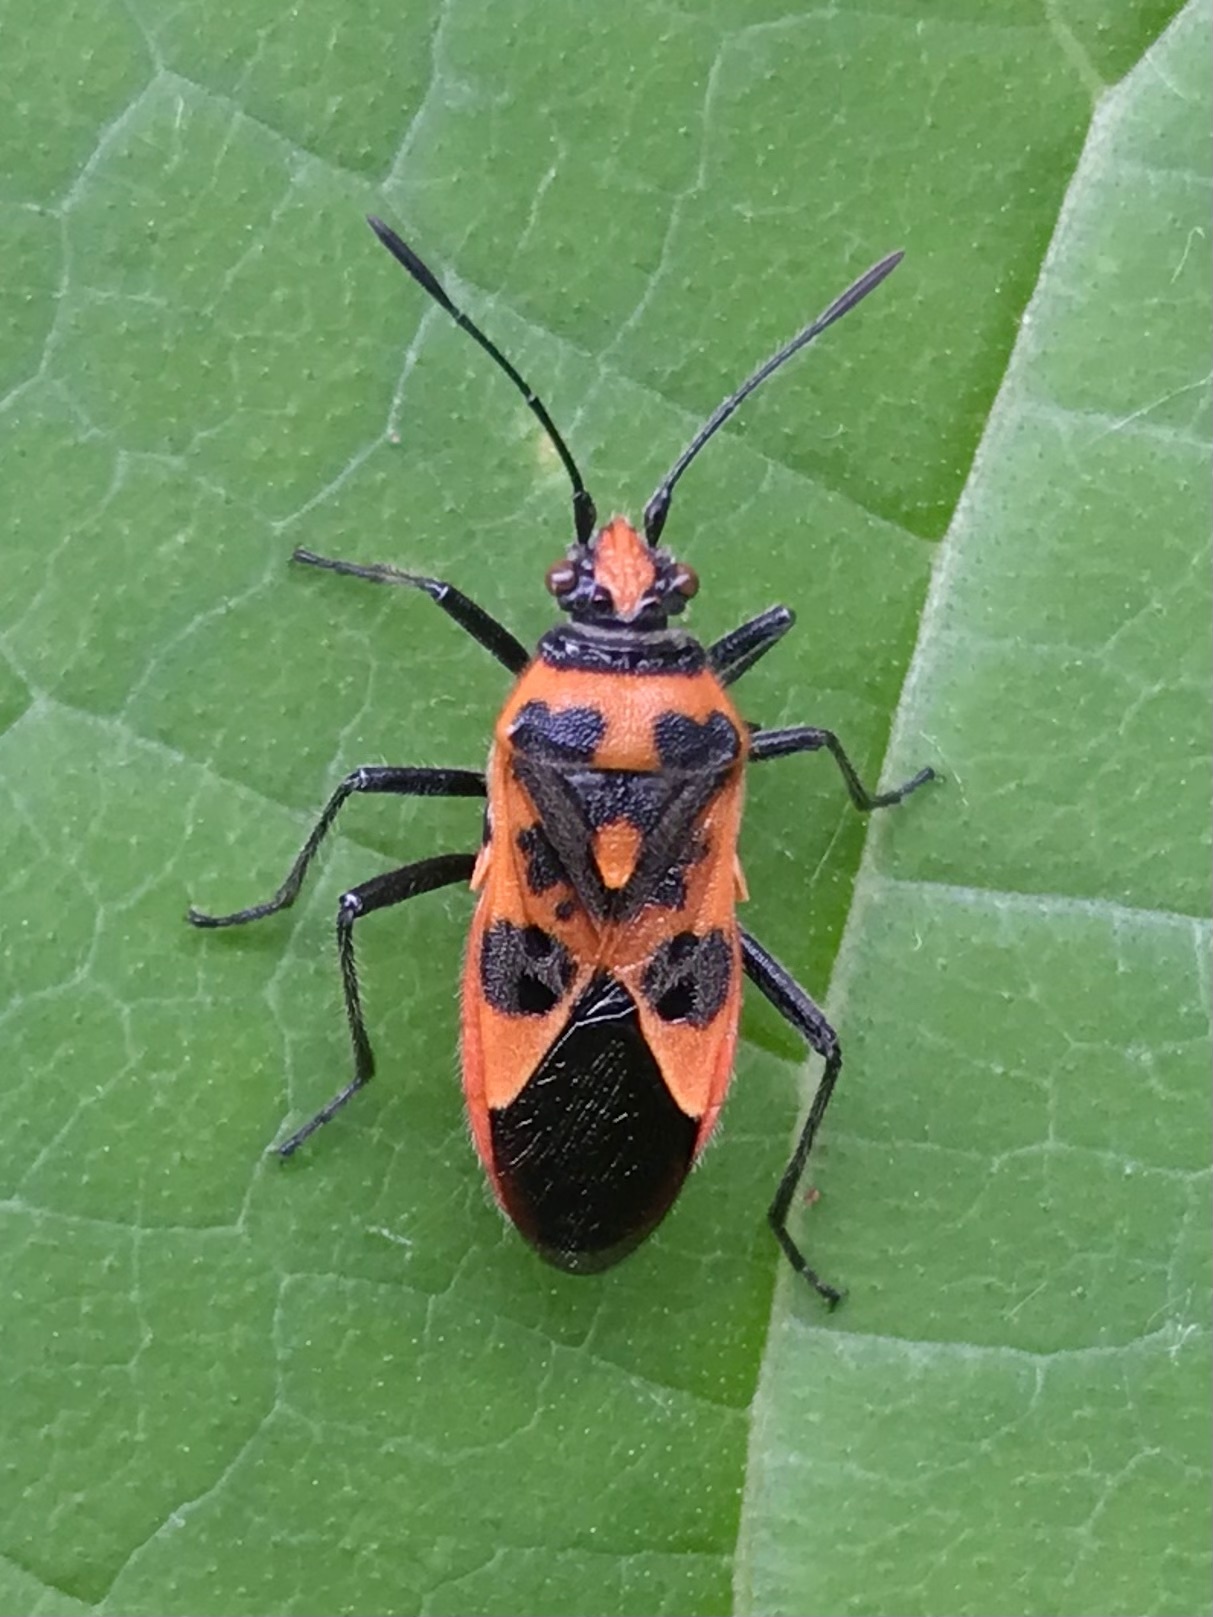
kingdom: Animalia
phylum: Arthropoda
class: Insecta
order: Hemiptera
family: Rhopalidae
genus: Corizus
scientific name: Corizus hyoscyami
